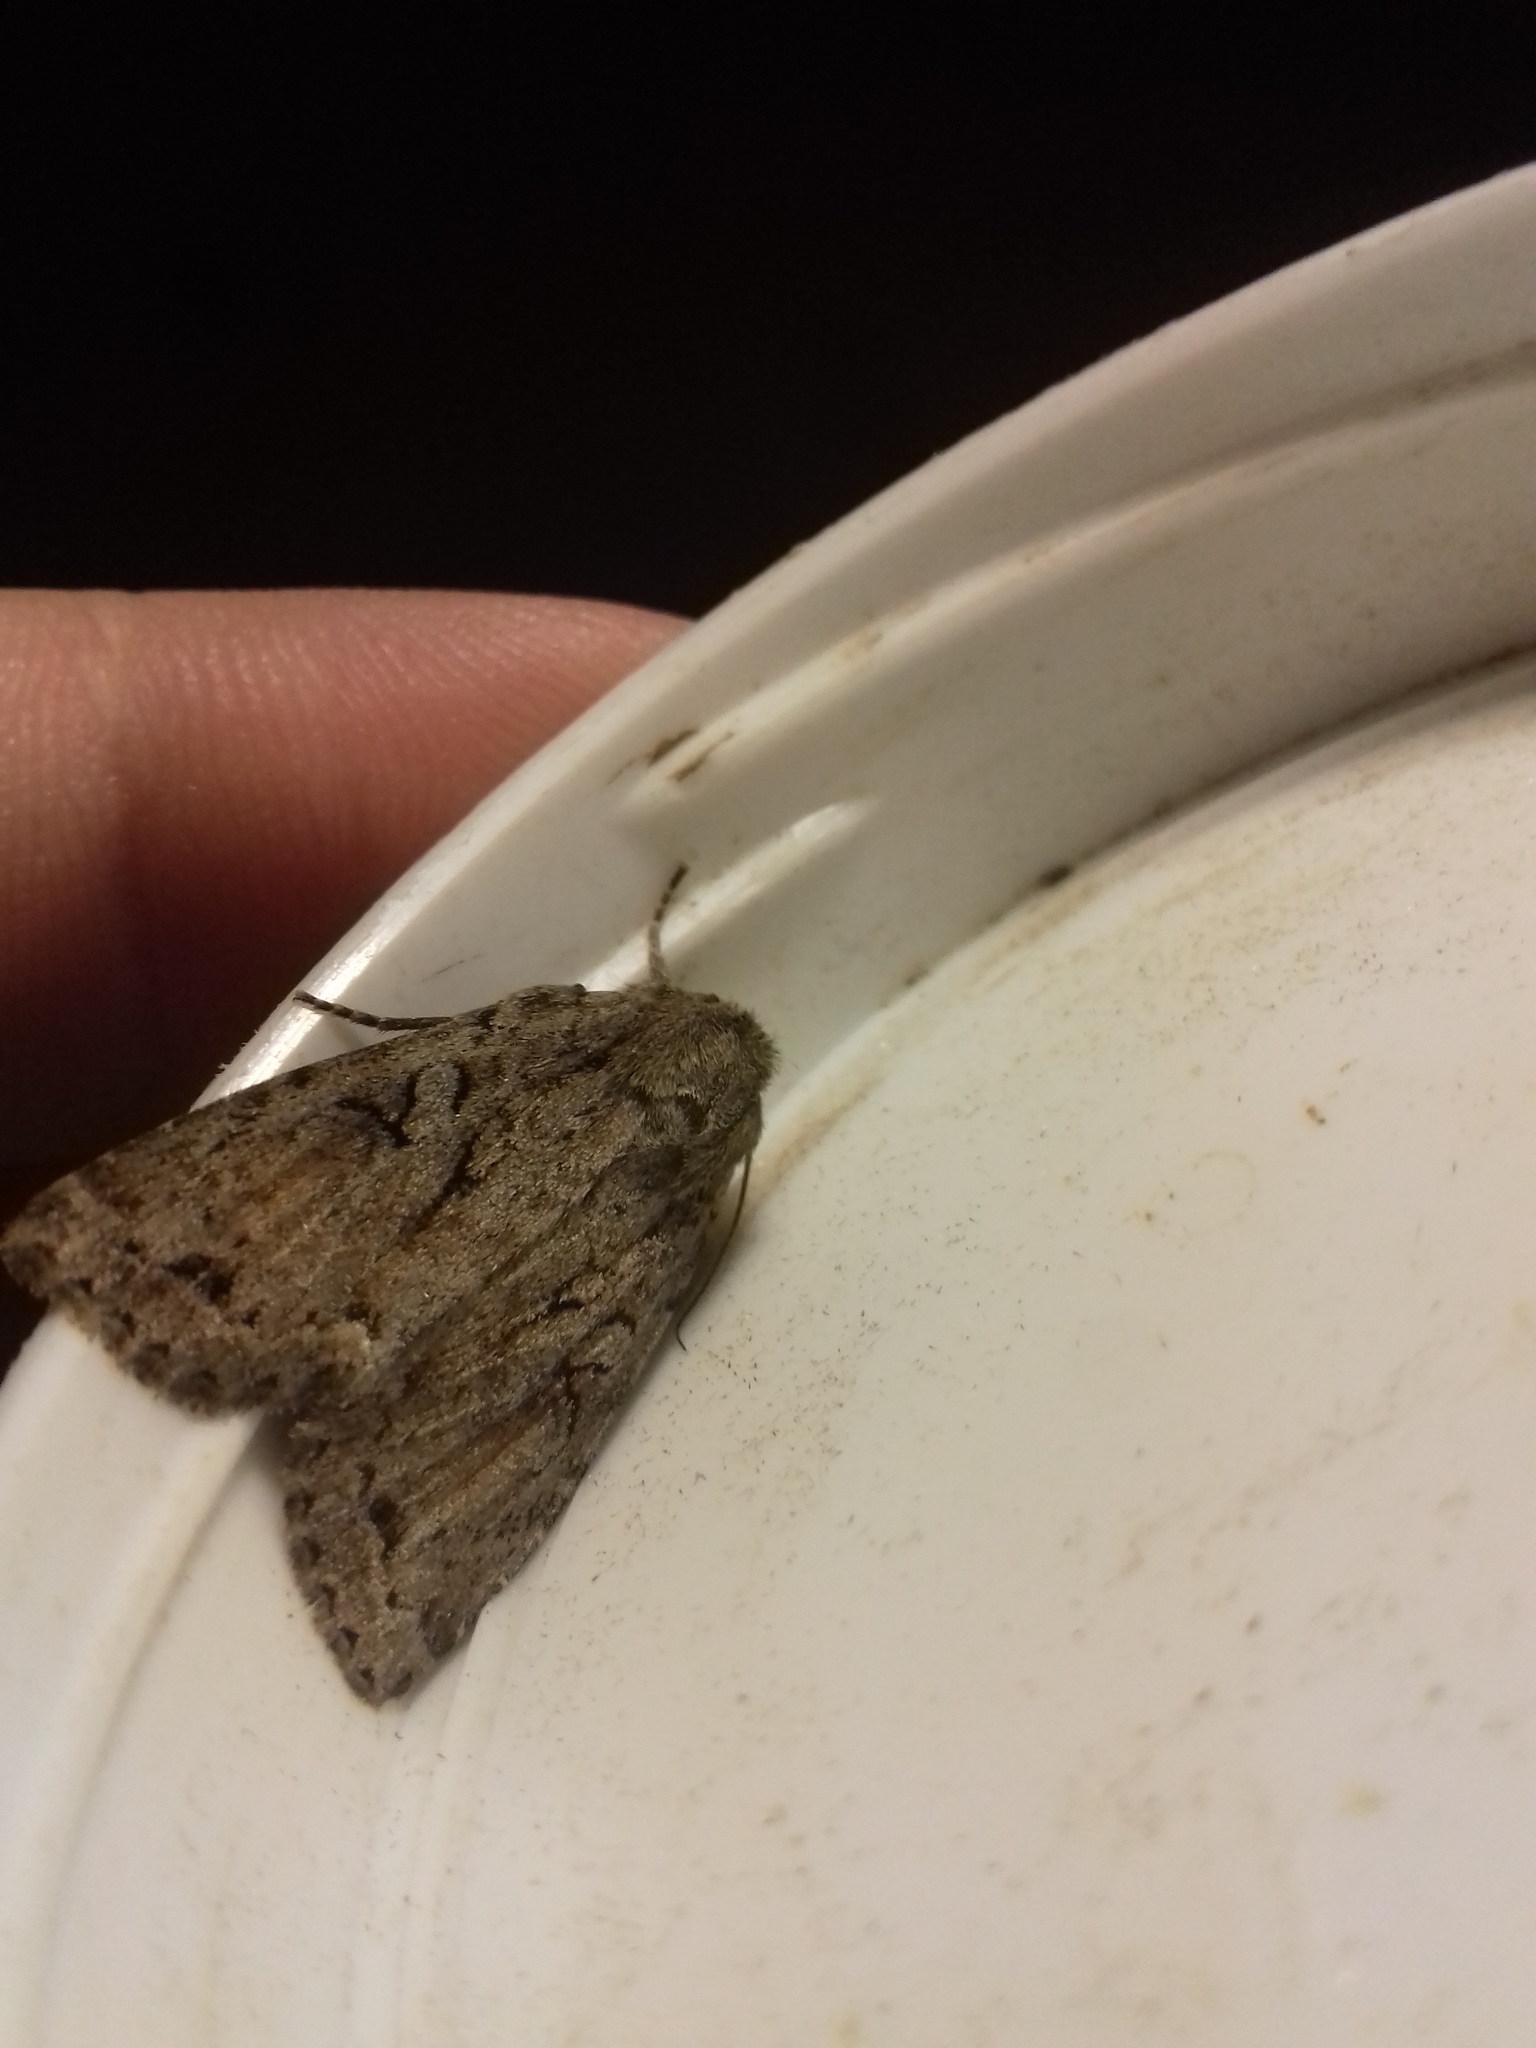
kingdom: Animalia
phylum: Arthropoda
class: Insecta
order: Lepidoptera
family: Noctuidae
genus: Apterogenum
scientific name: Apterogenum ypsillon
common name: Dingy shears
